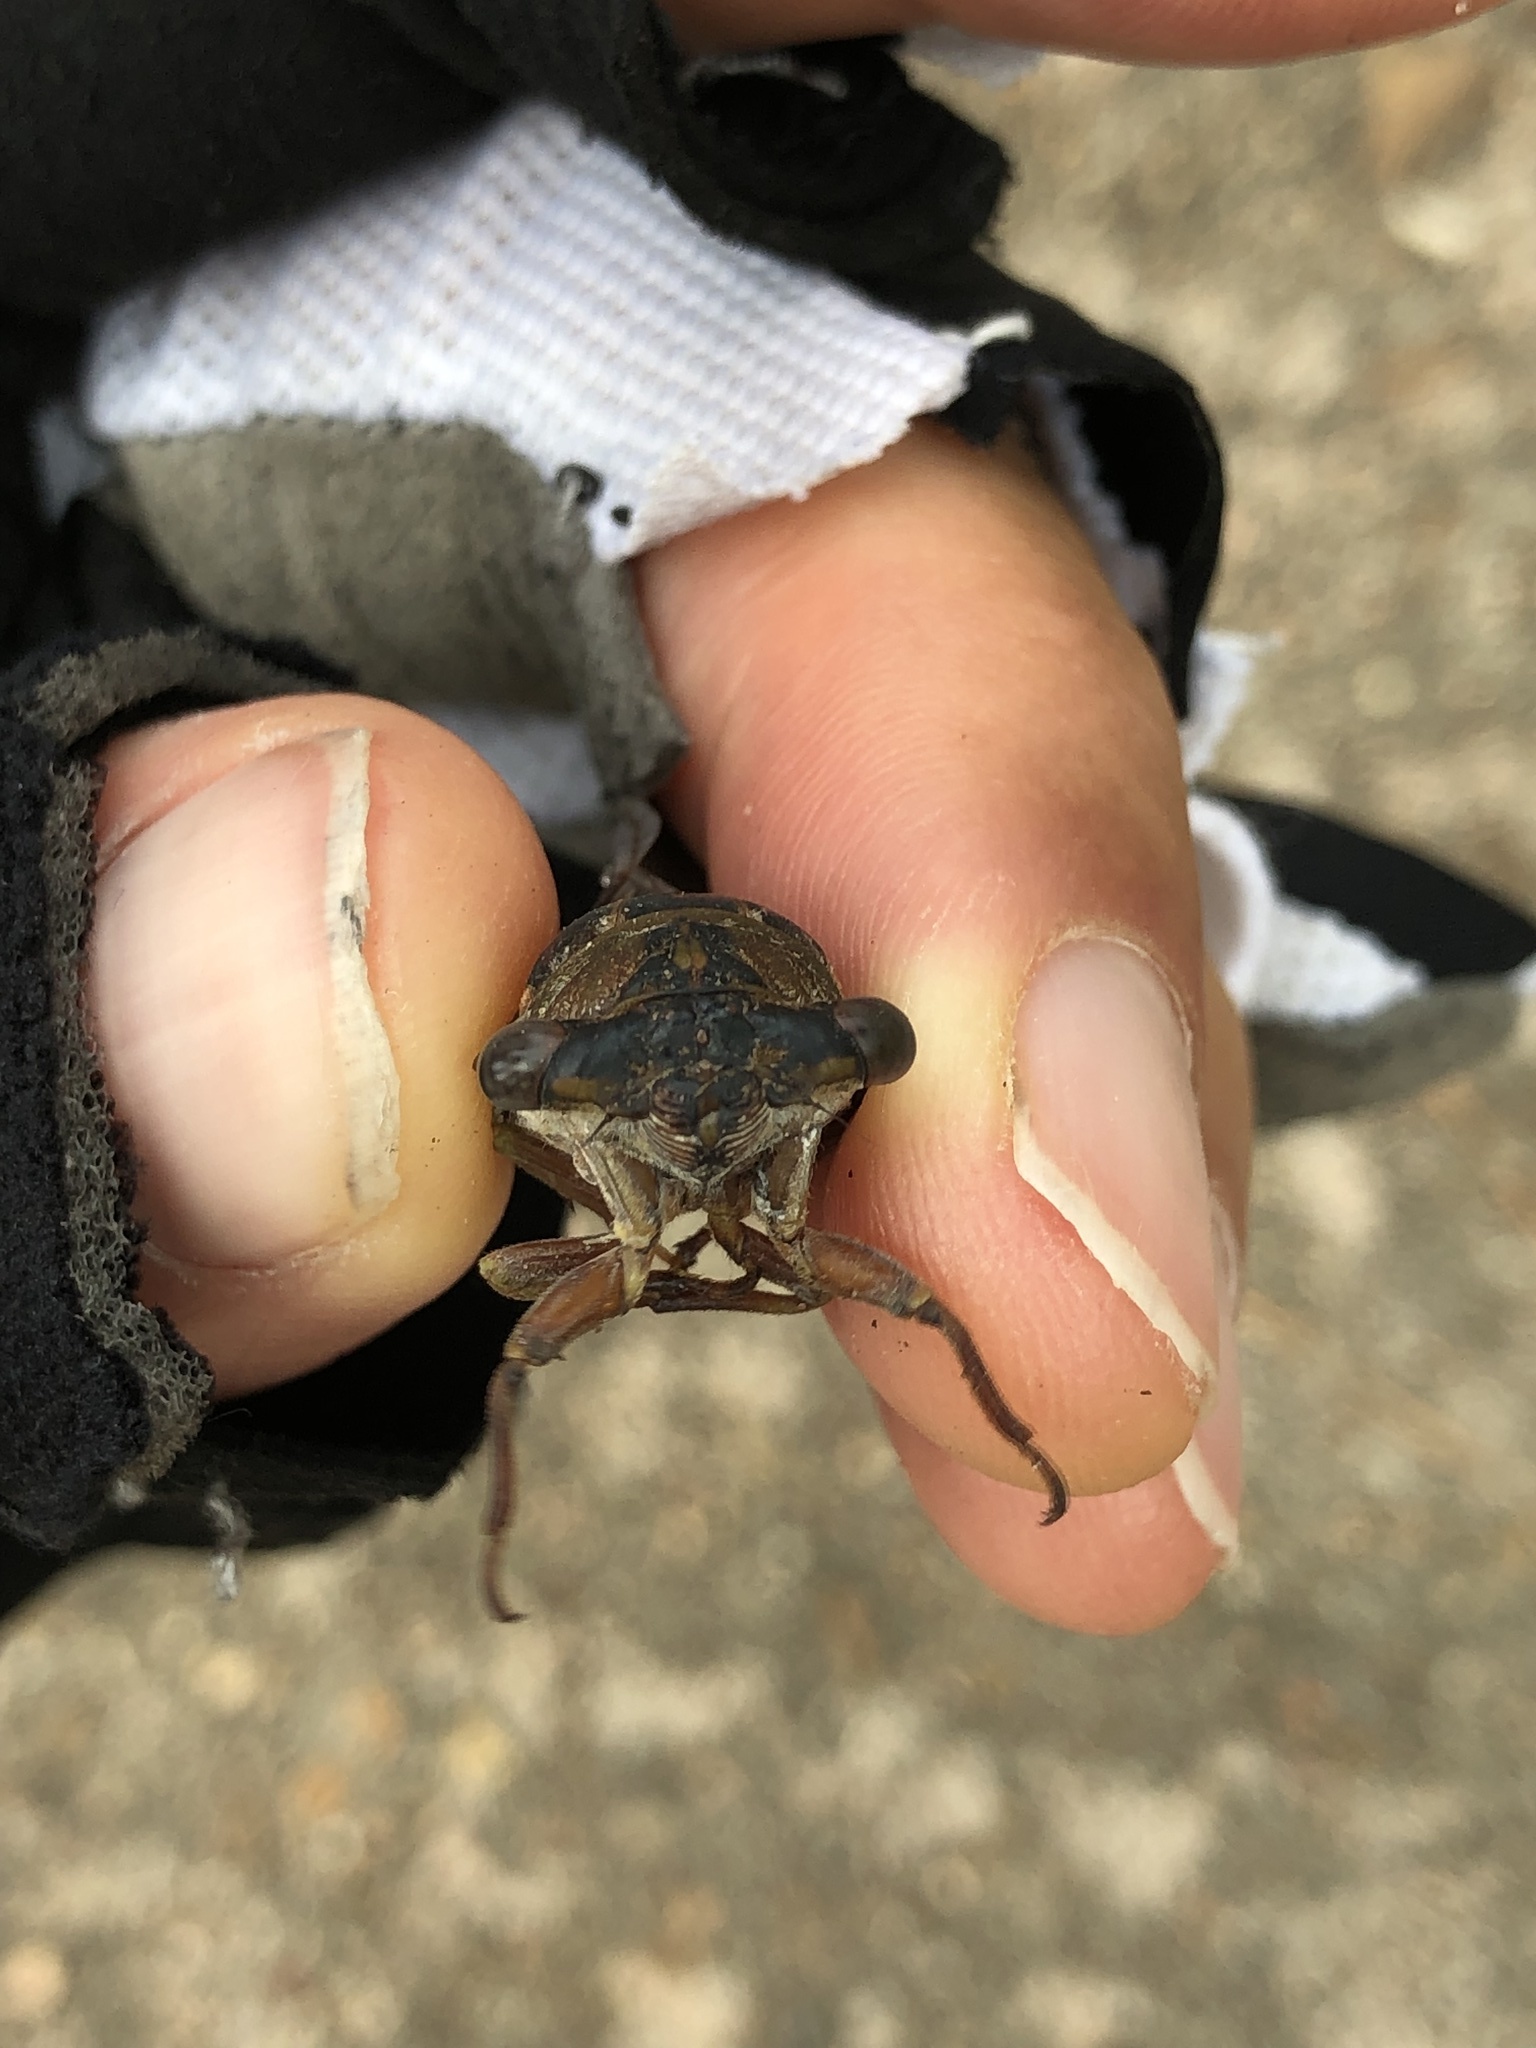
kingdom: Animalia
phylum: Arthropoda
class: Insecta
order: Hemiptera
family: Cicadidae
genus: Neotibicen
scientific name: Neotibicen davisi
